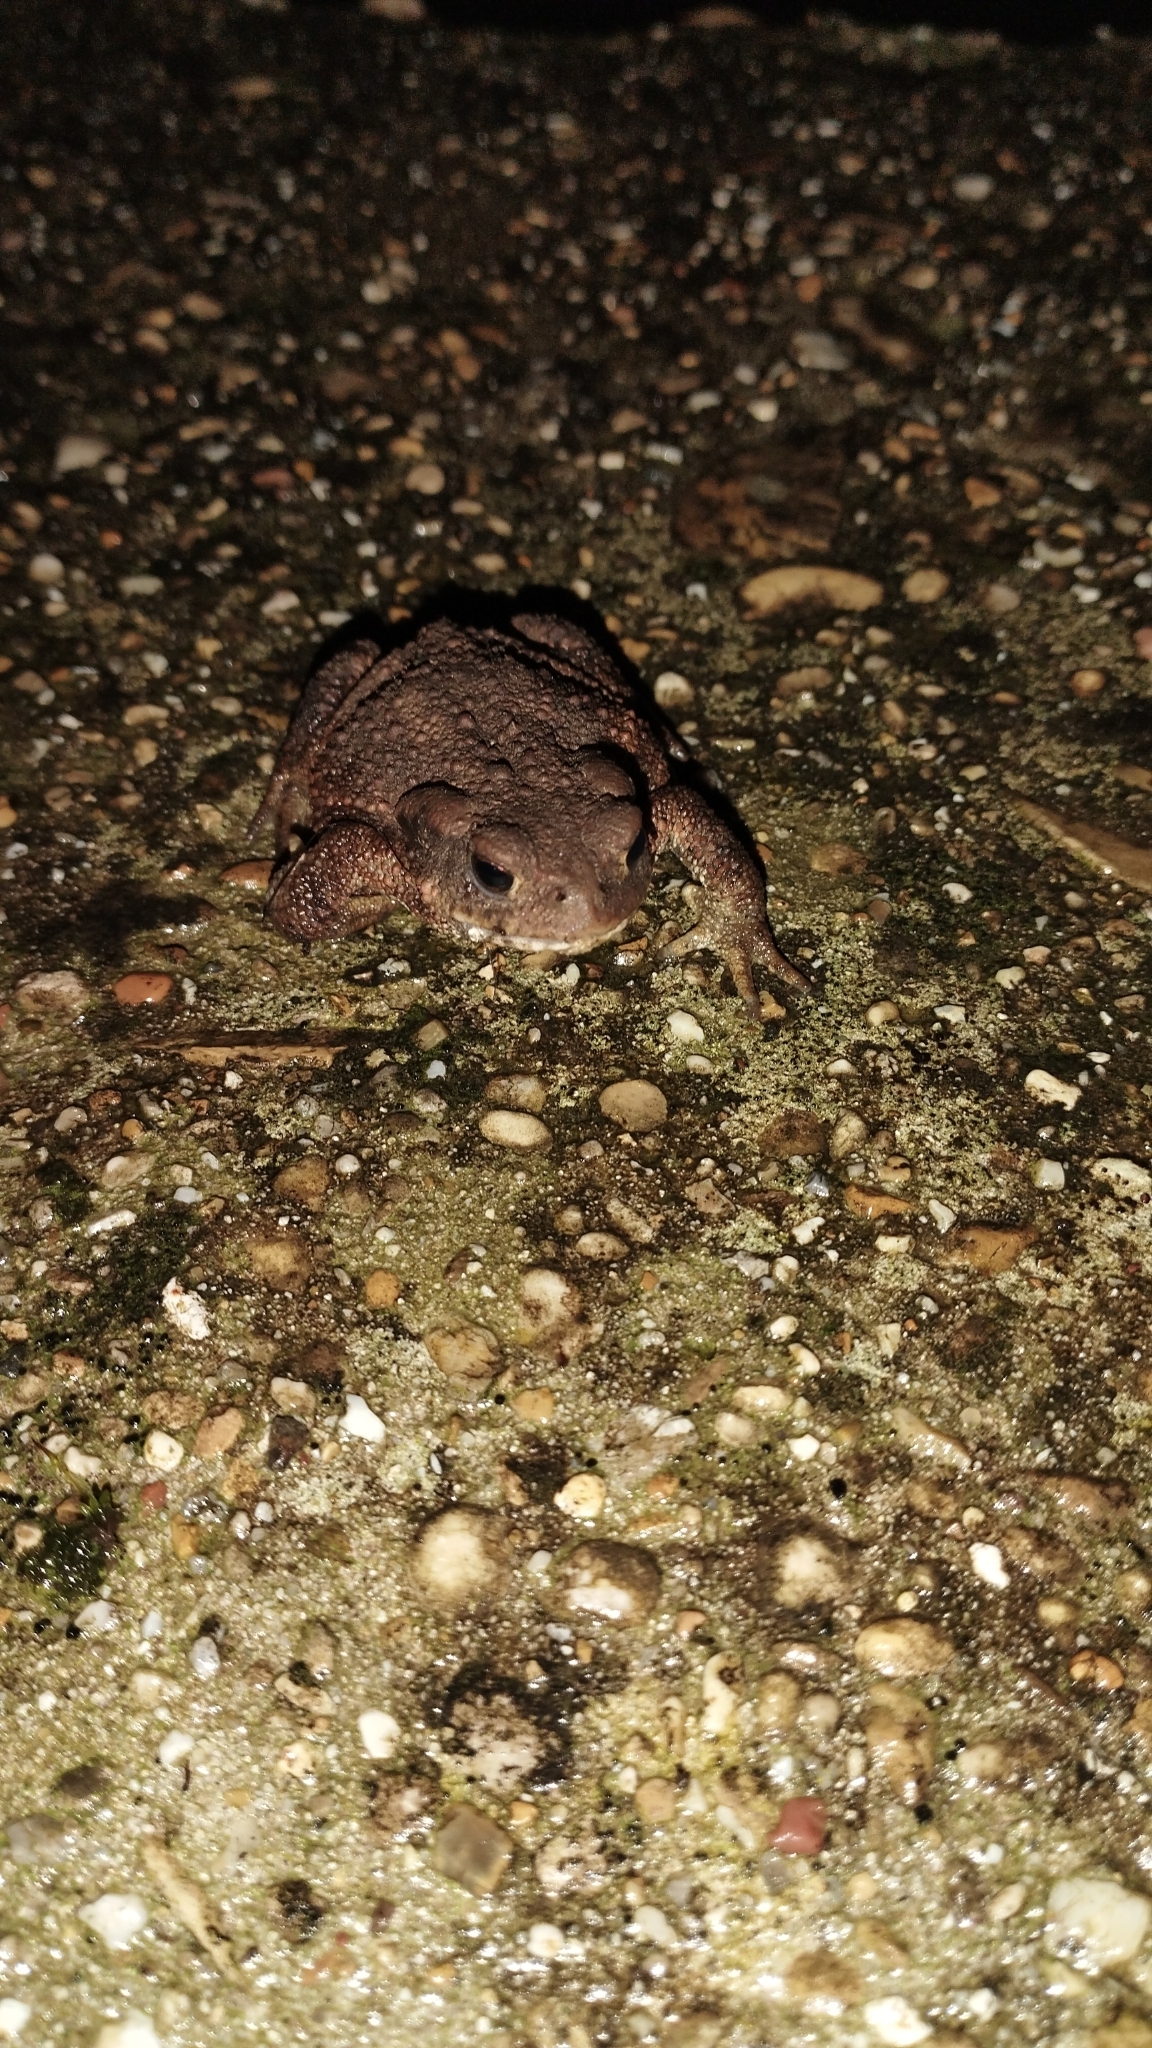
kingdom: Animalia
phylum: Chordata
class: Amphibia
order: Anura
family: Bufonidae
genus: Bufo
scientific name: Bufo bufo
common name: Common toad
